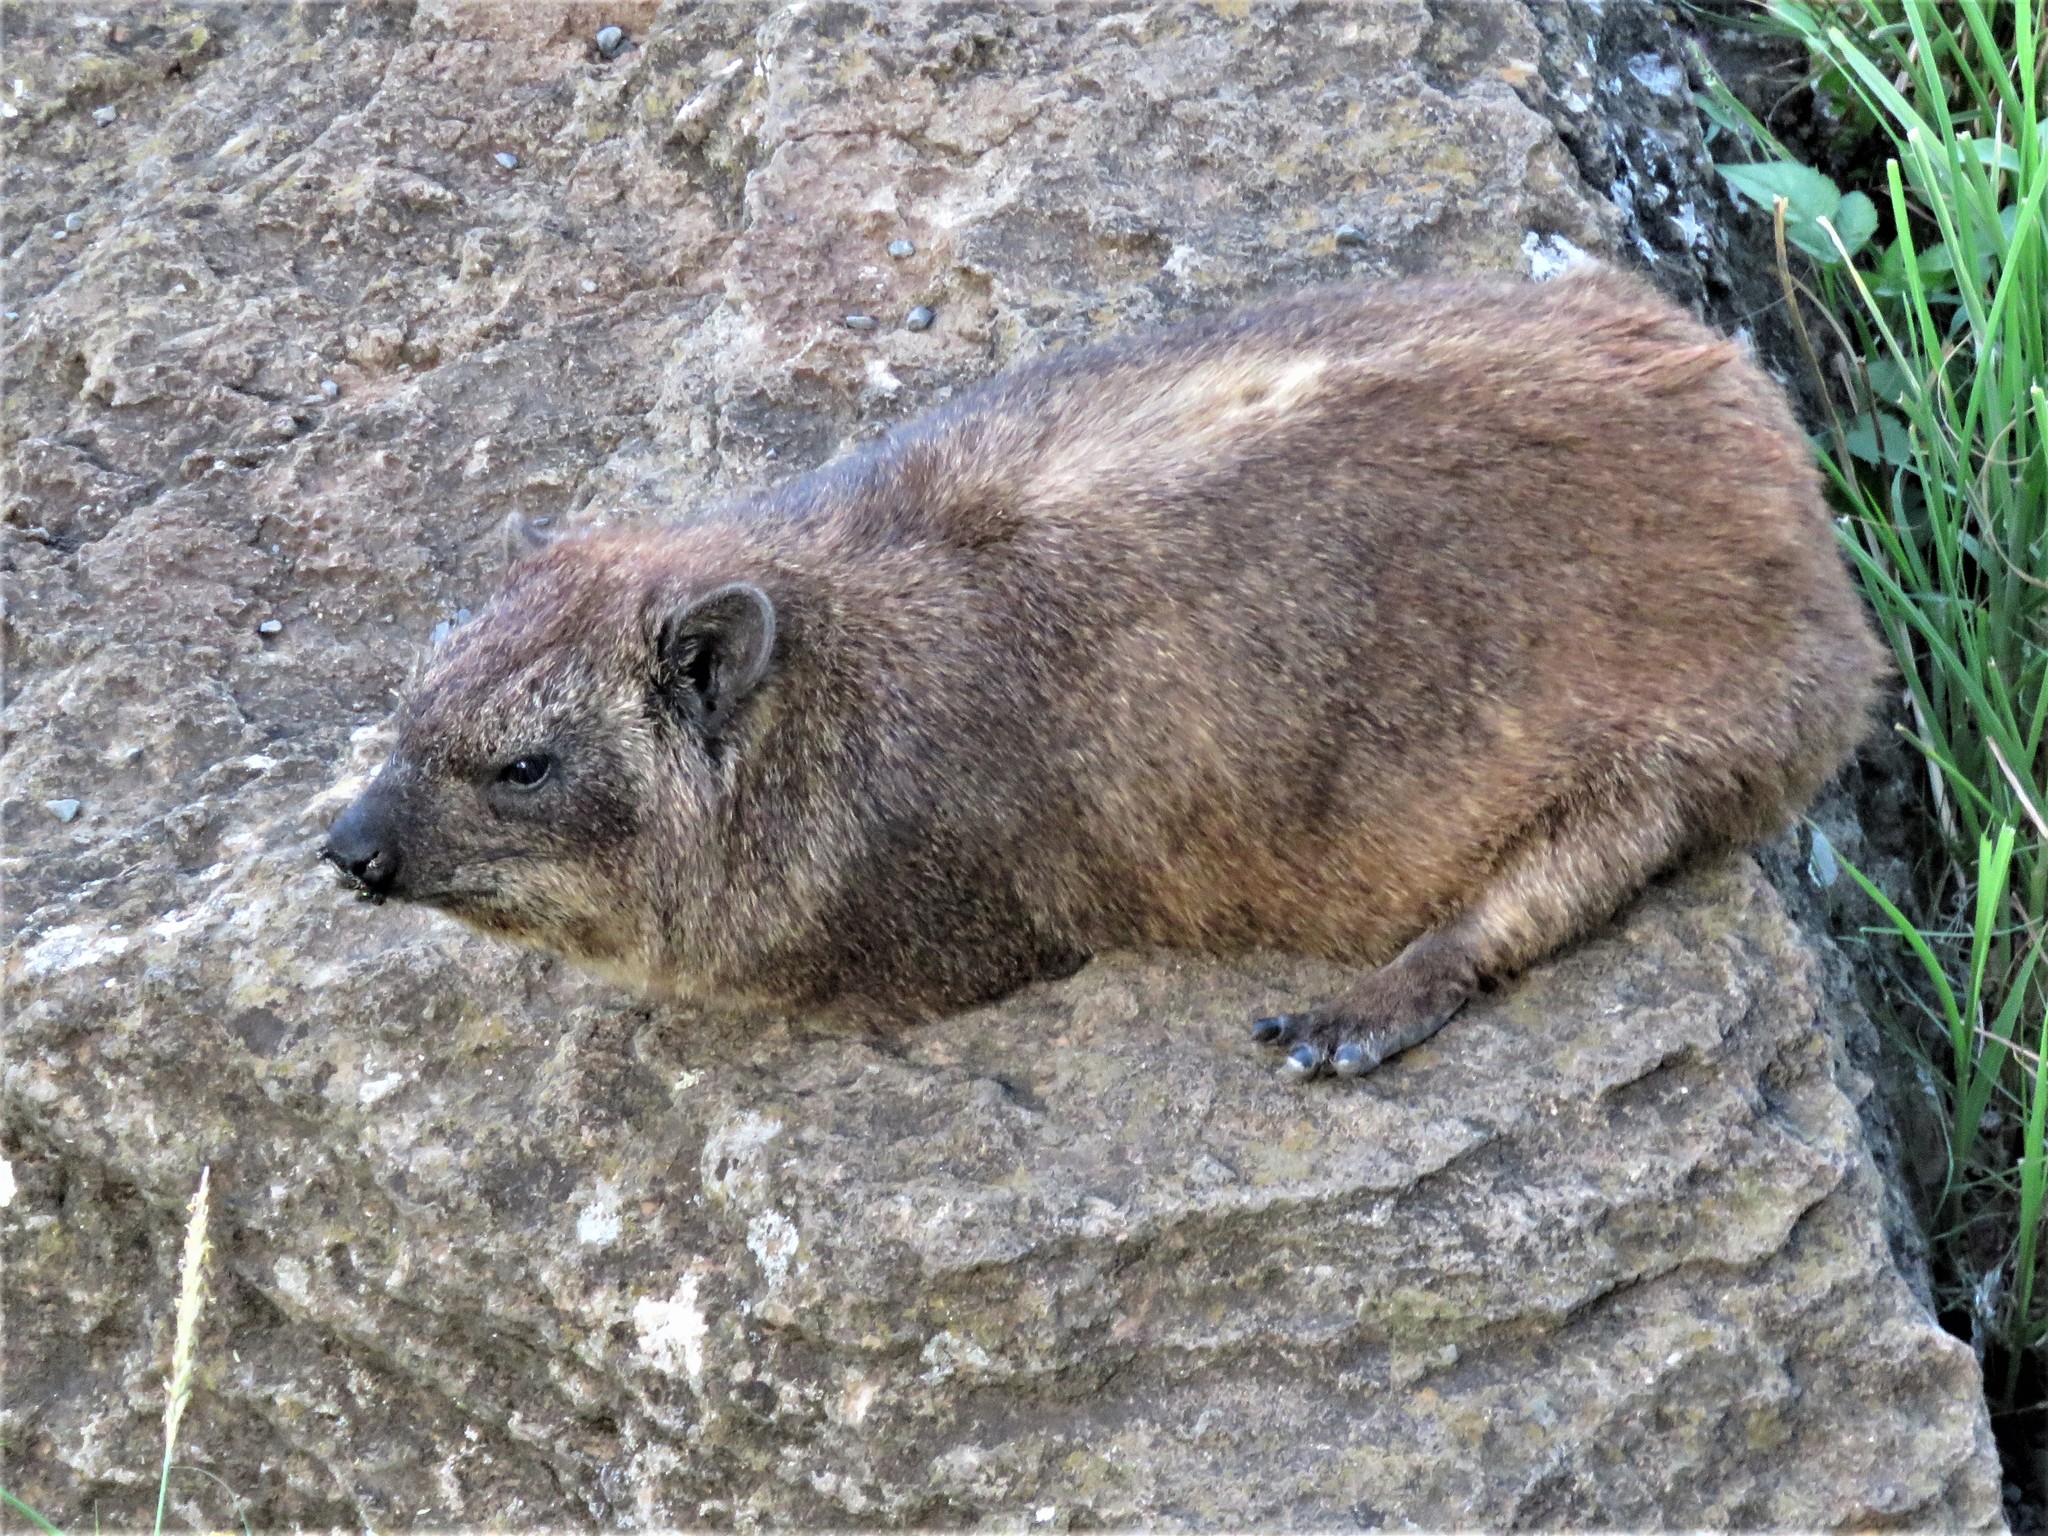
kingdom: Animalia
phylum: Chordata
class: Mammalia
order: Hyracoidea
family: Procaviidae
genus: Procavia
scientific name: Procavia capensis
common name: Rock hyrax
